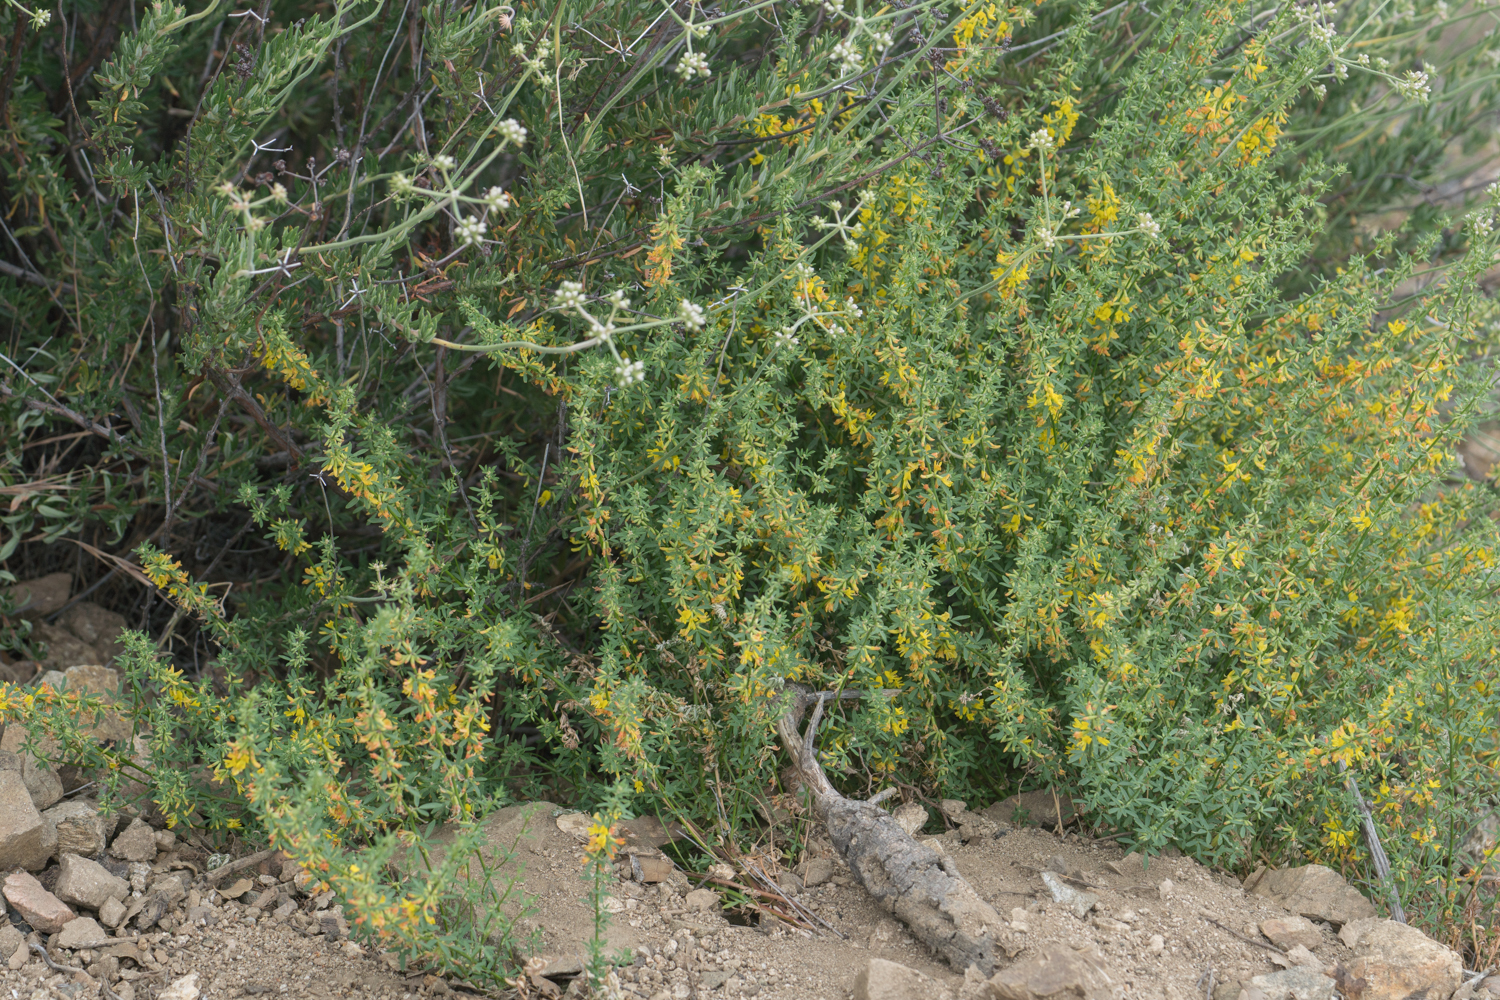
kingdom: Plantae
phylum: Tracheophyta
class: Magnoliopsida
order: Fabales
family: Fabaceae
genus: Acmispon
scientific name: Acmispon glaber
